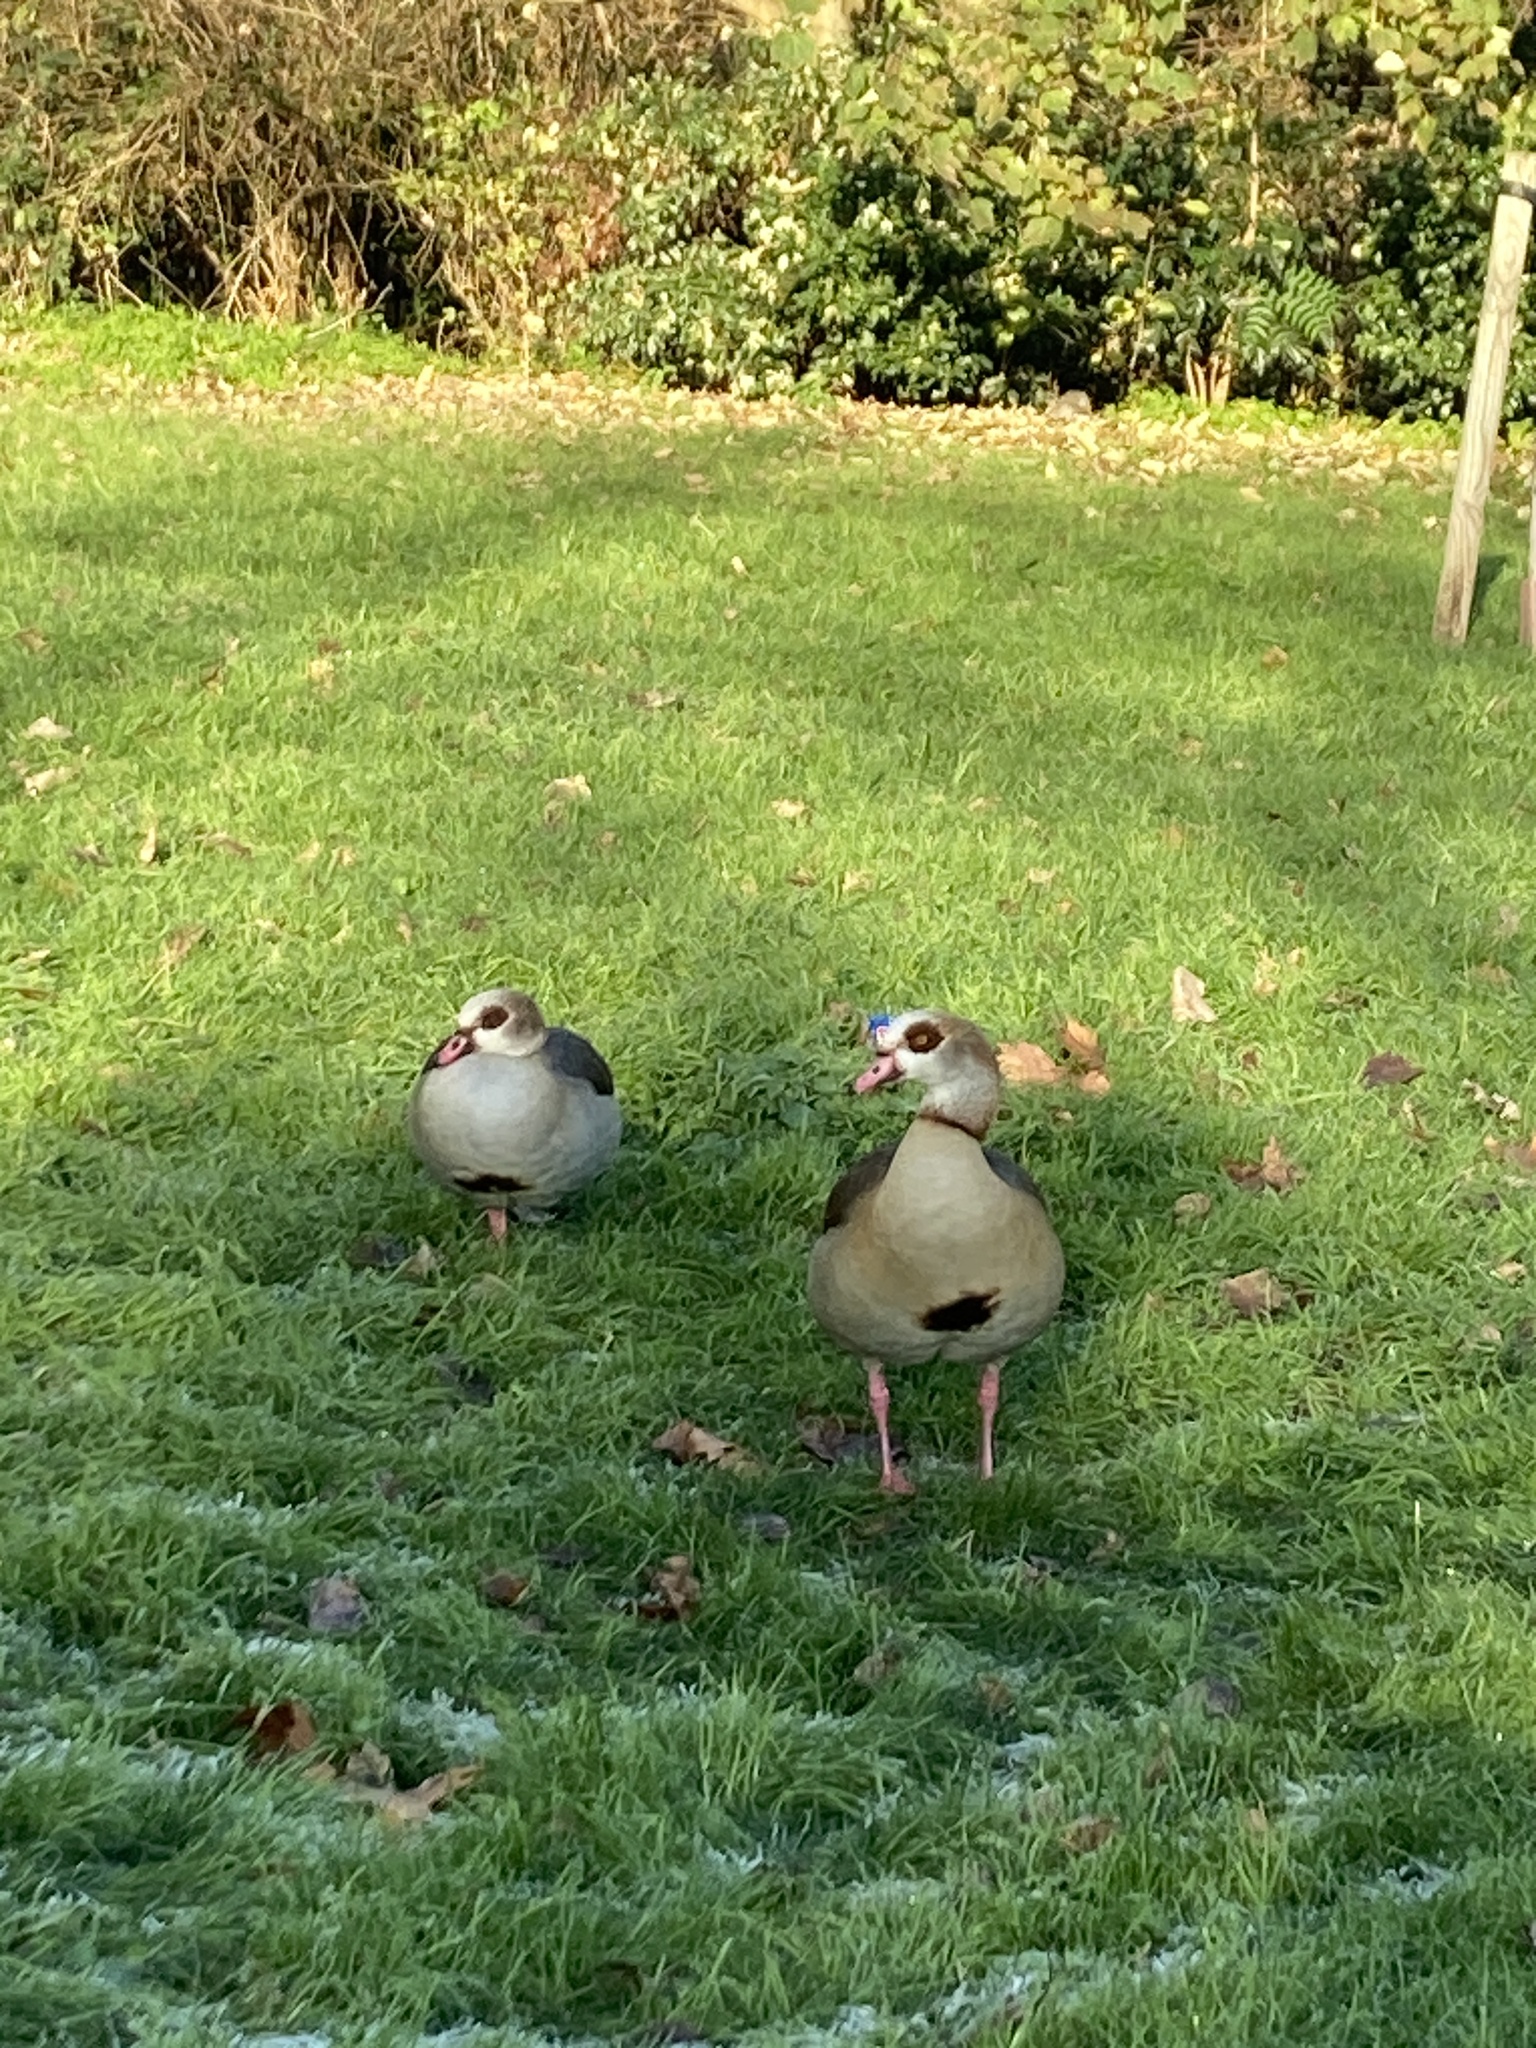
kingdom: Animalia
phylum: Chordata
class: Aves
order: Anseriformes
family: Anatidae
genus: Alopochen
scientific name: Alopochen aegyptiaca
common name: Egyptian goose
